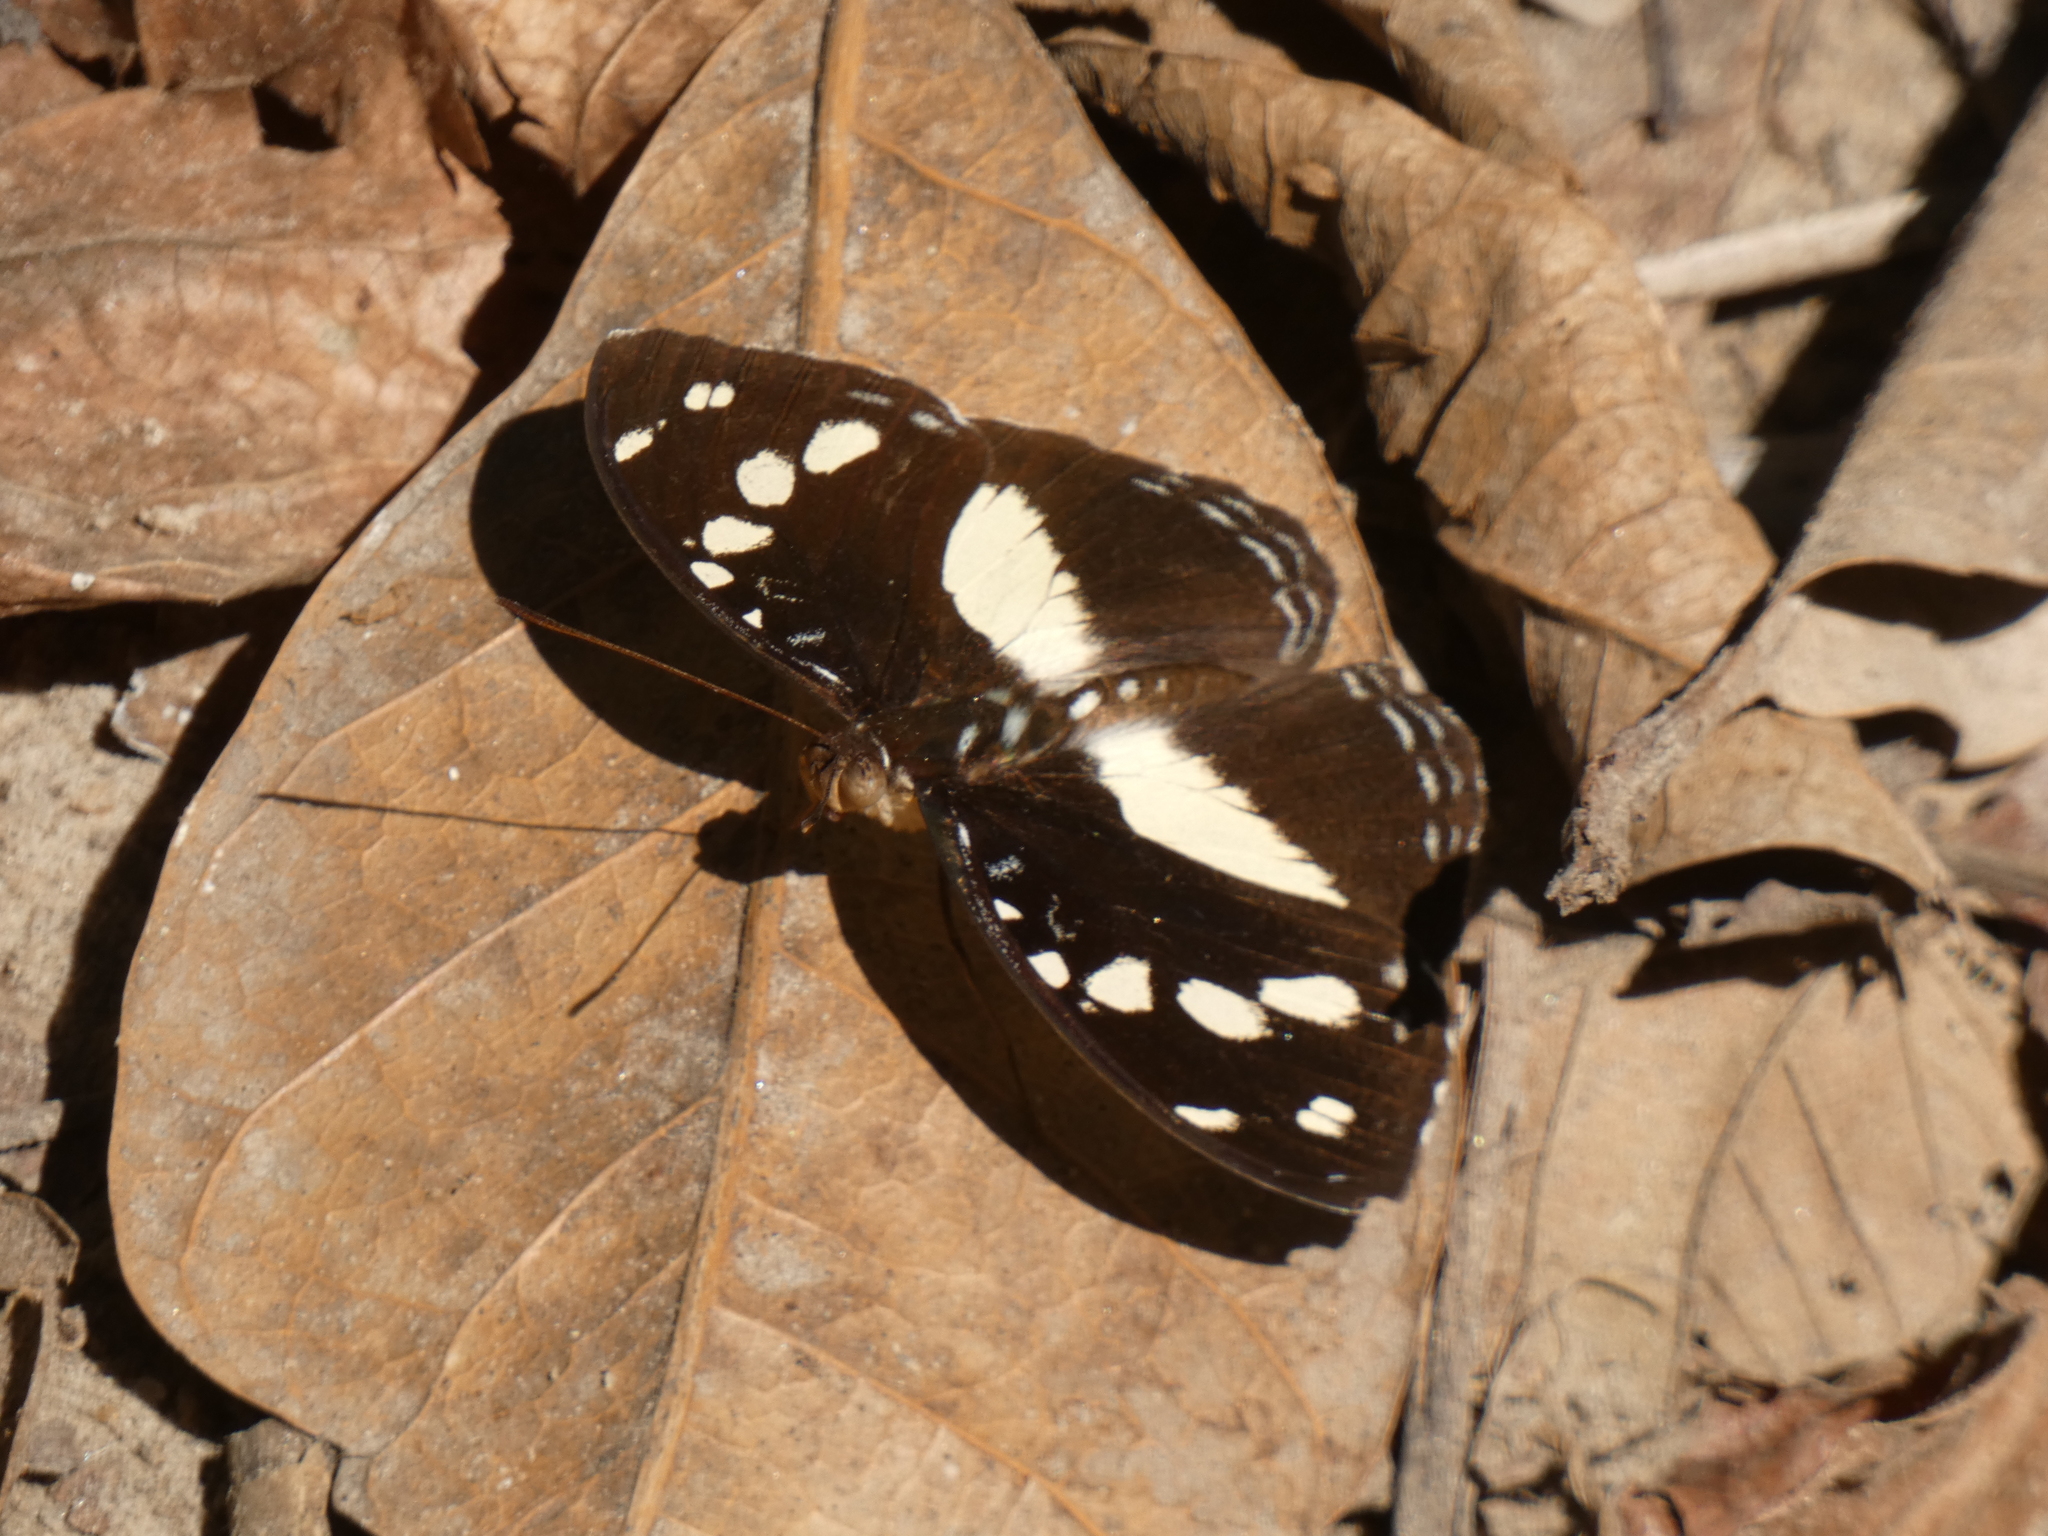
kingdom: Animalia
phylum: Arthropoda
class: Insecta
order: Lepidoptera
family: Nymphalidae
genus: Aterica
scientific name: Aterica galene
